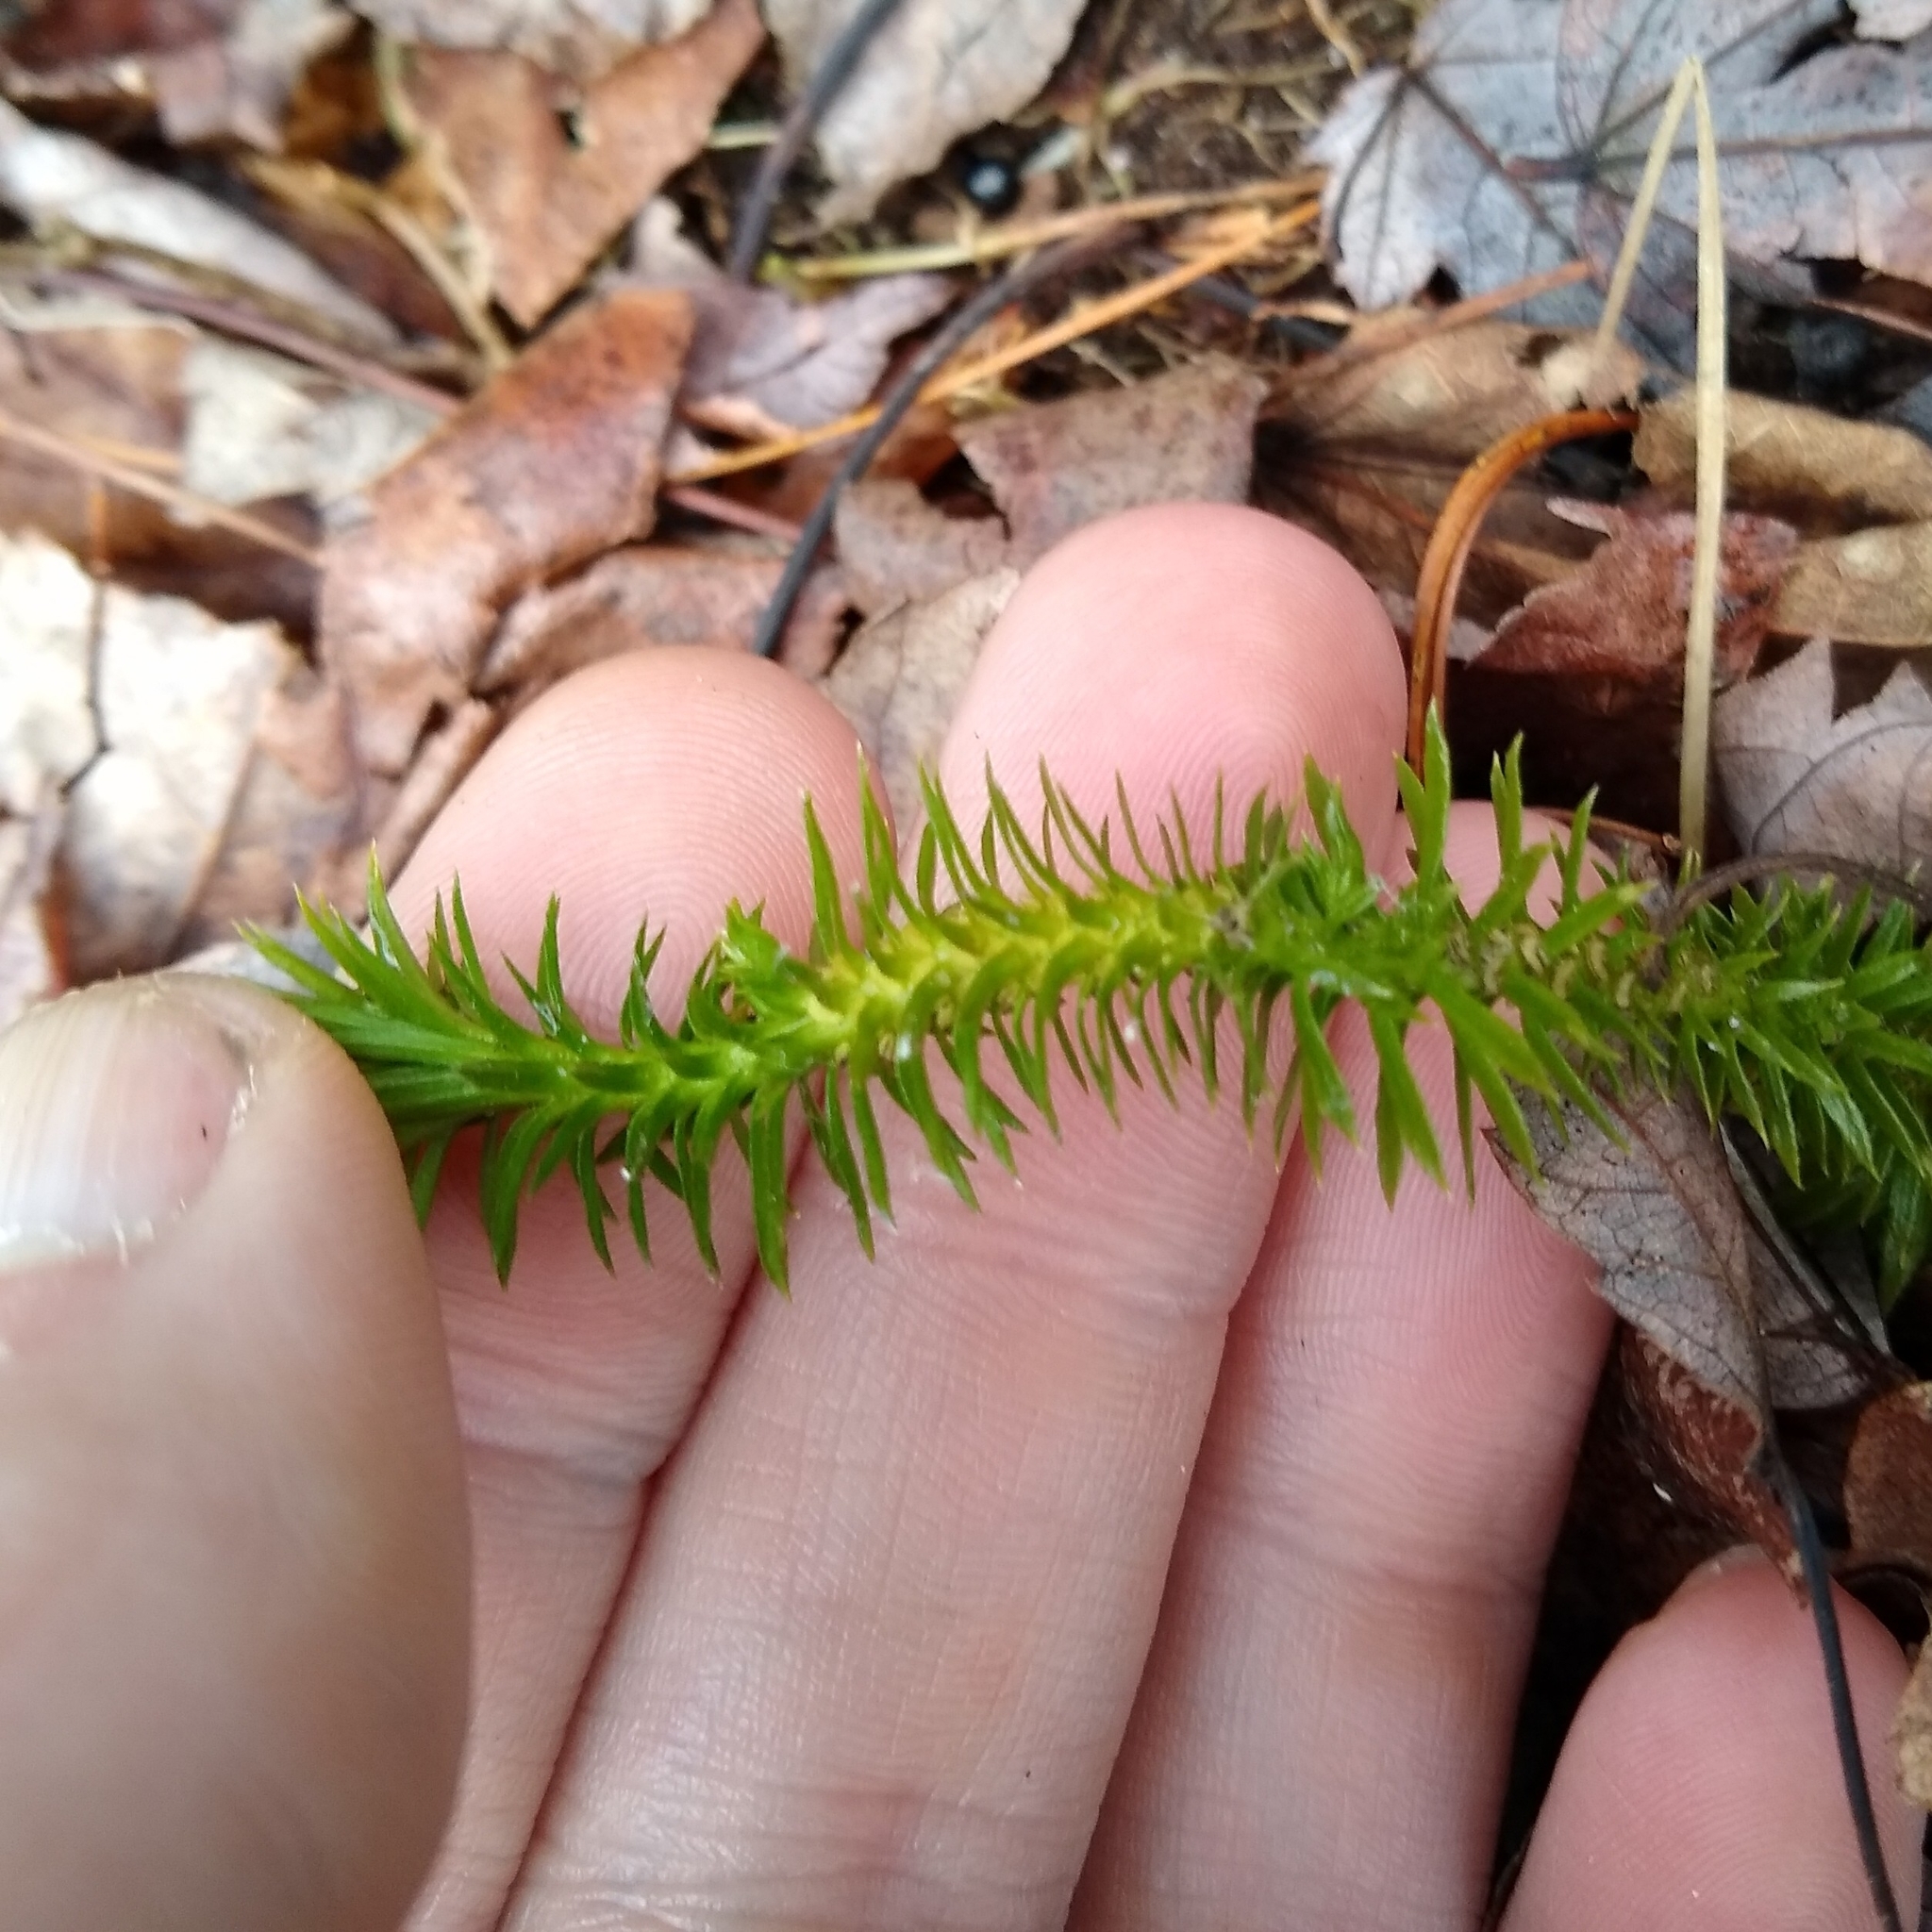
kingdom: Plantae
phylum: Tracheophyta
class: Lycopodiopsida
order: Lycopodiales
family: Lycopodiaceae
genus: Huperzia
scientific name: Huperzia lucidula
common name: Shining clubmoss
